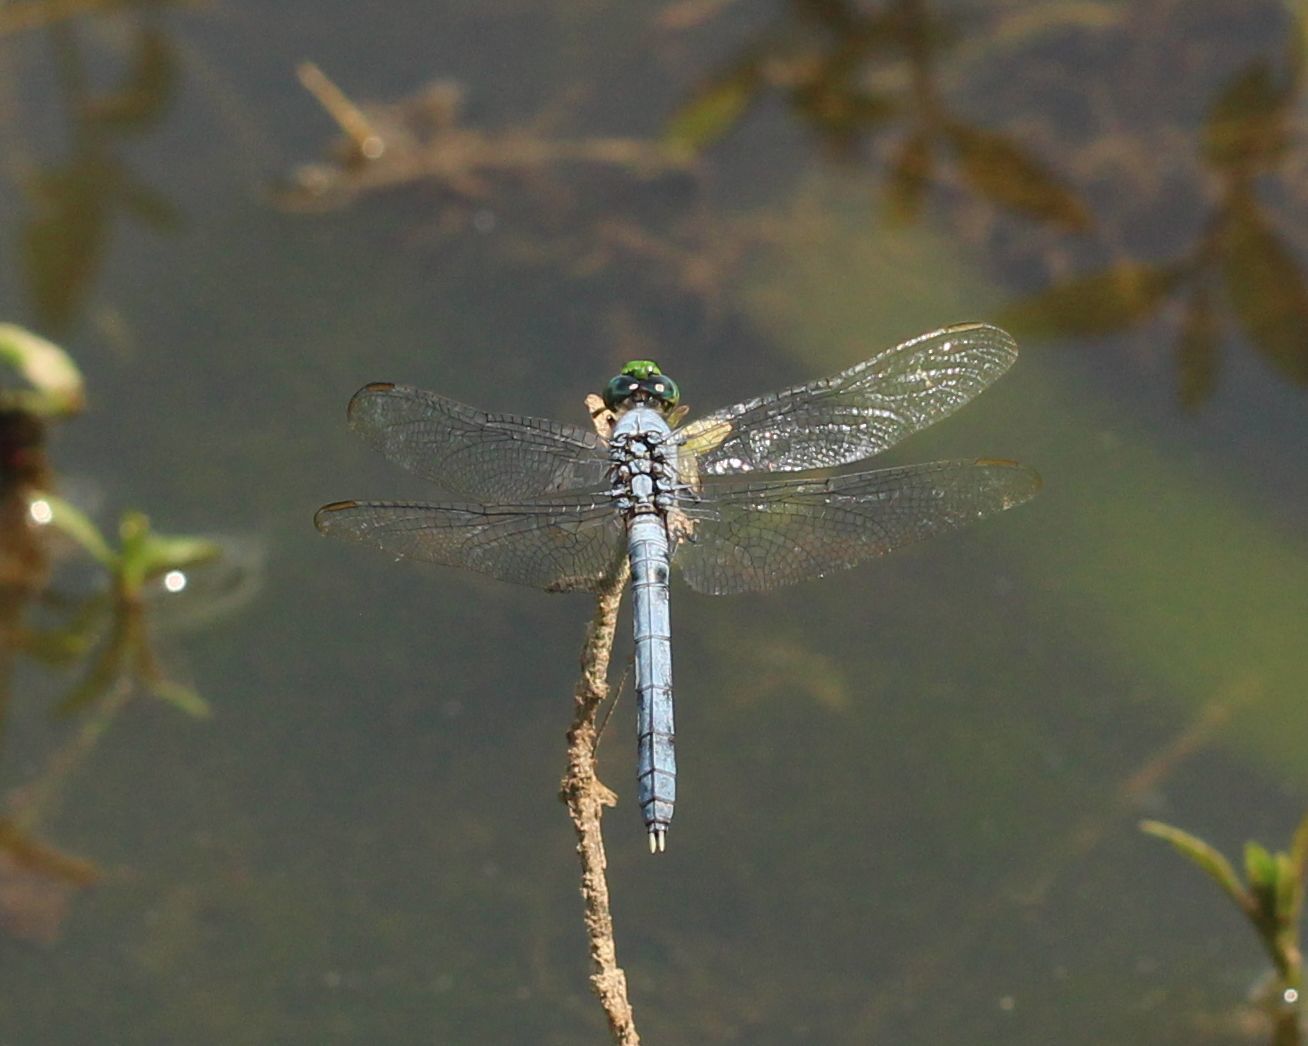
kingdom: Animalia
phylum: Arthropoda
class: Insecta
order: Odonata
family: Libellulidae
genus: Erythemis
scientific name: Erythemis simplicicollis
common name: Eastern pondhawk
